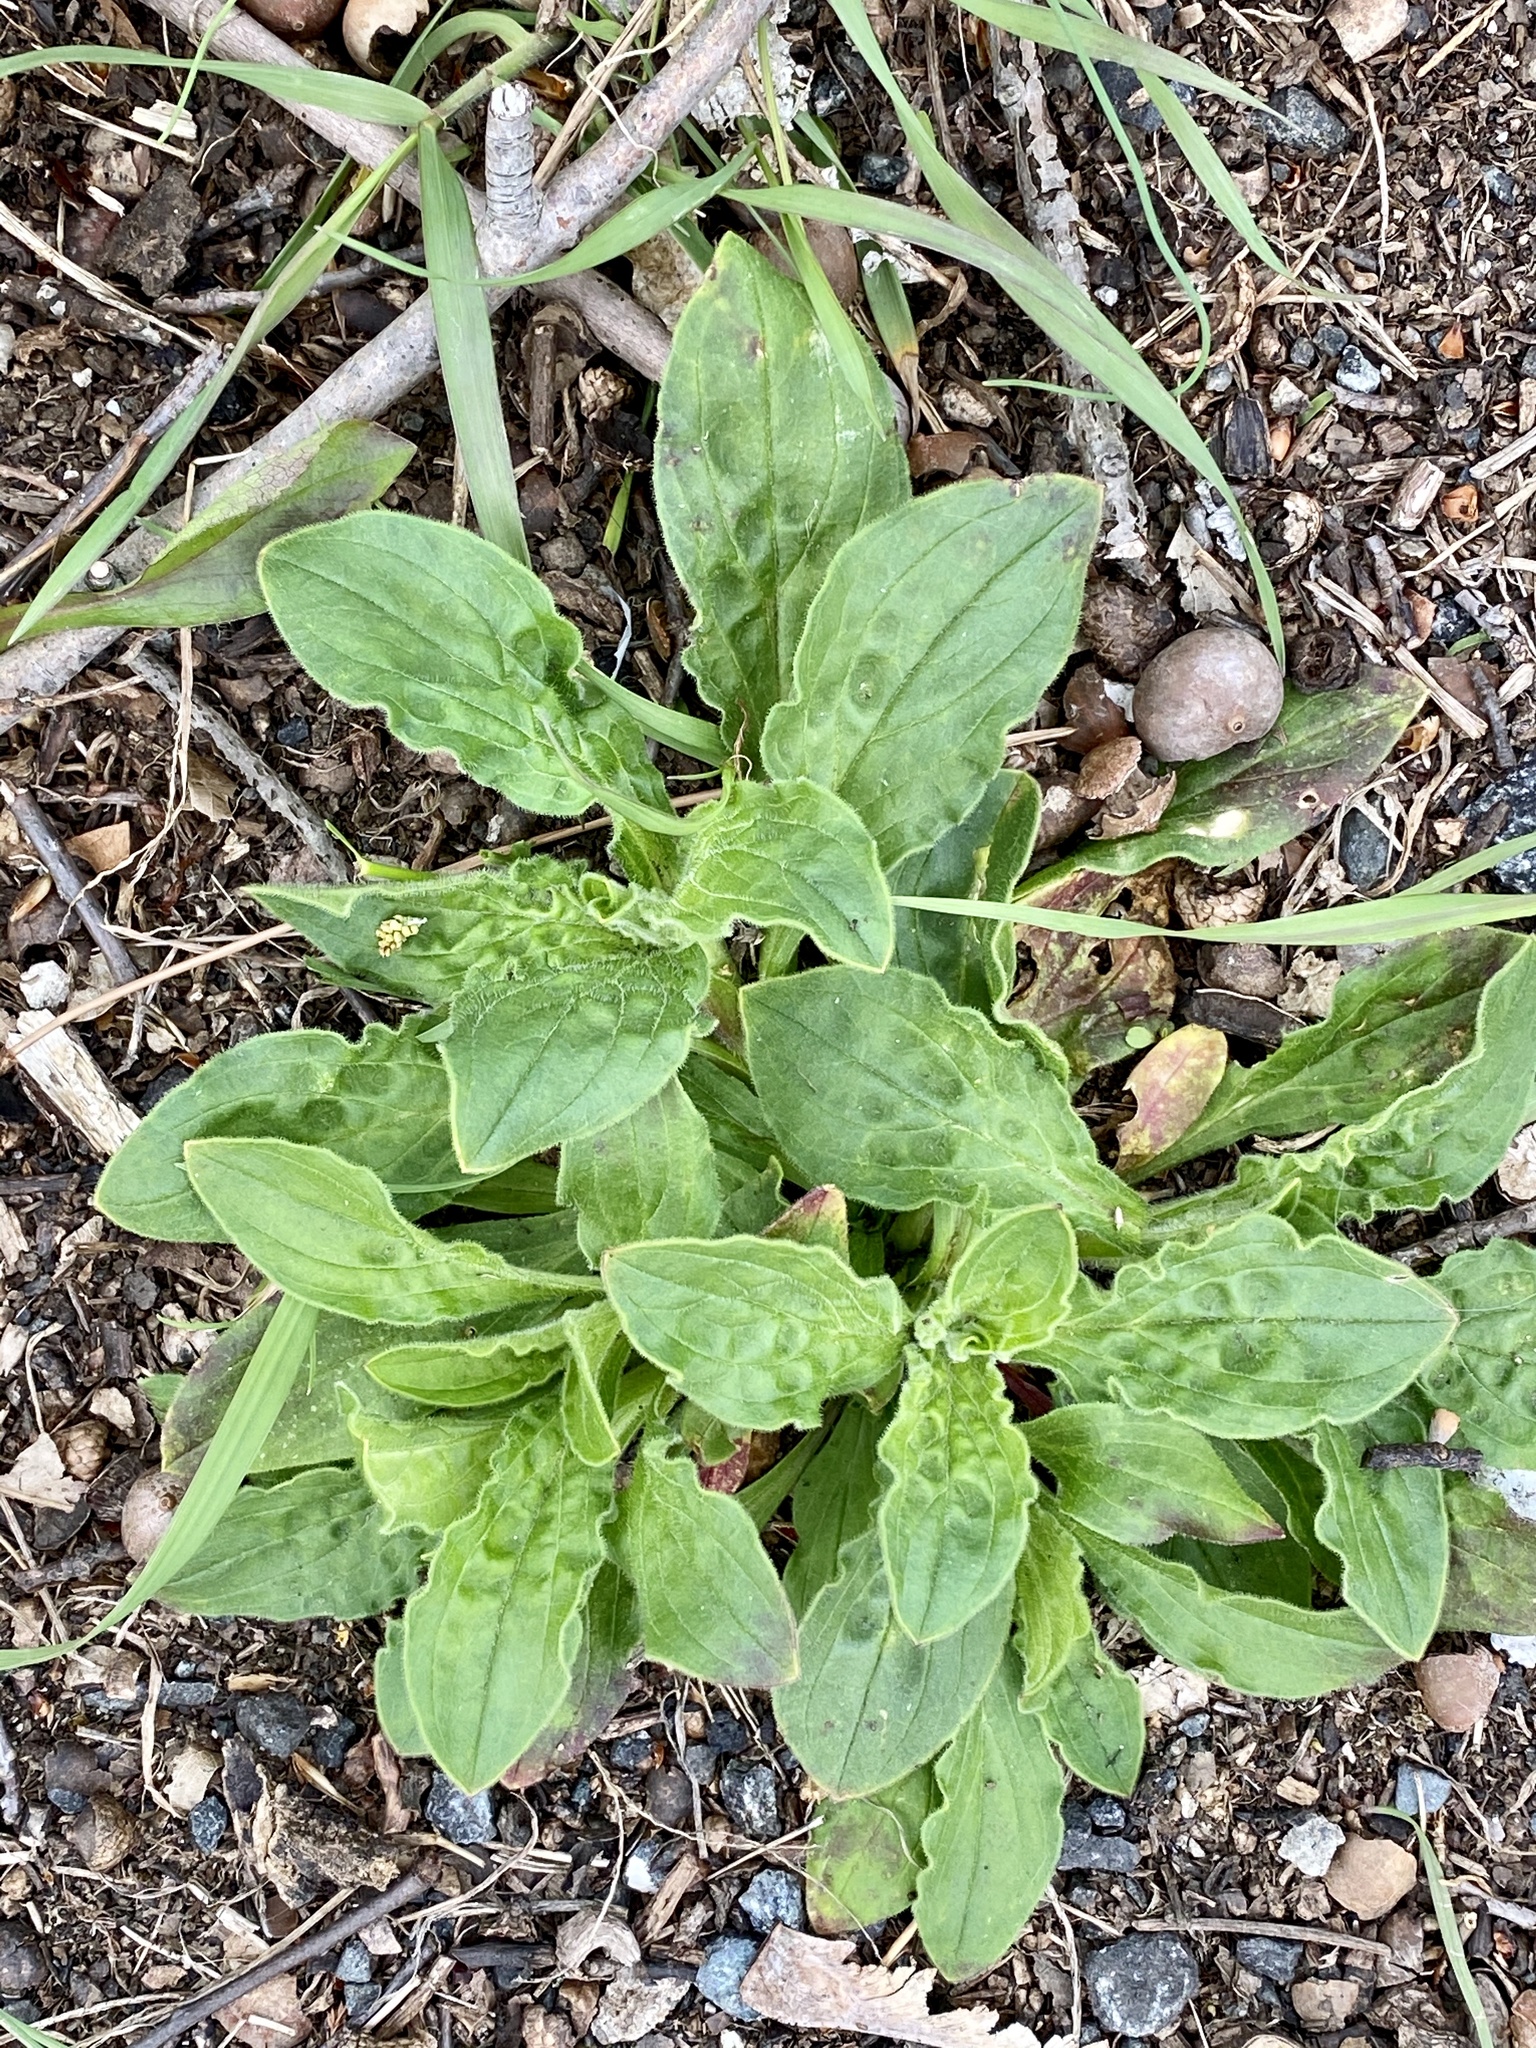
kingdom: Plantae
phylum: Tracheophyta
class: Magnoliopsida
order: Caryophyllales
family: Caryophyllaceae
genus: Silene
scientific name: Silene latifolia
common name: White campion
